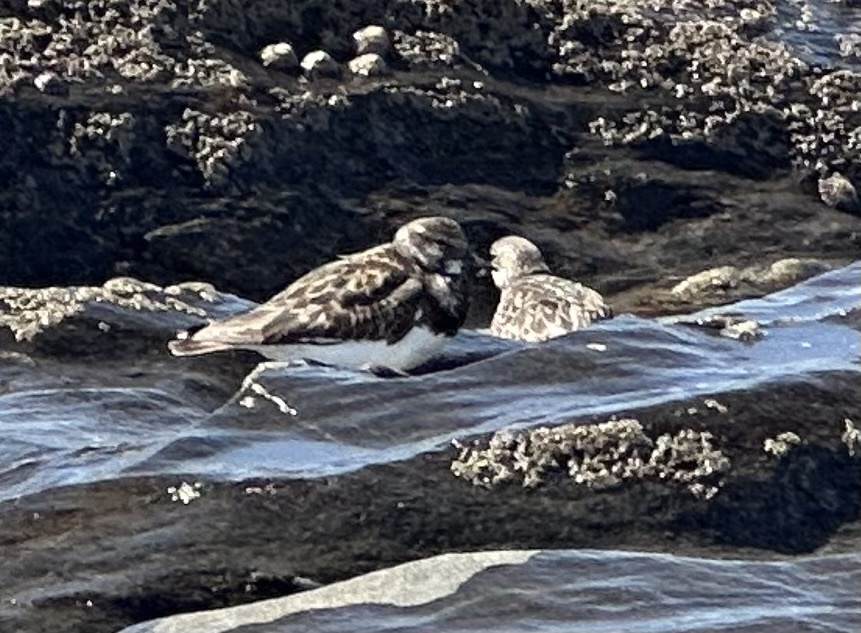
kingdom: Animalia
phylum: Chordata
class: Aves
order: Charadriiformes
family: Scolopacidae
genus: Arenaria
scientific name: Arenaria interpres
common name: Ruddy turnstone
